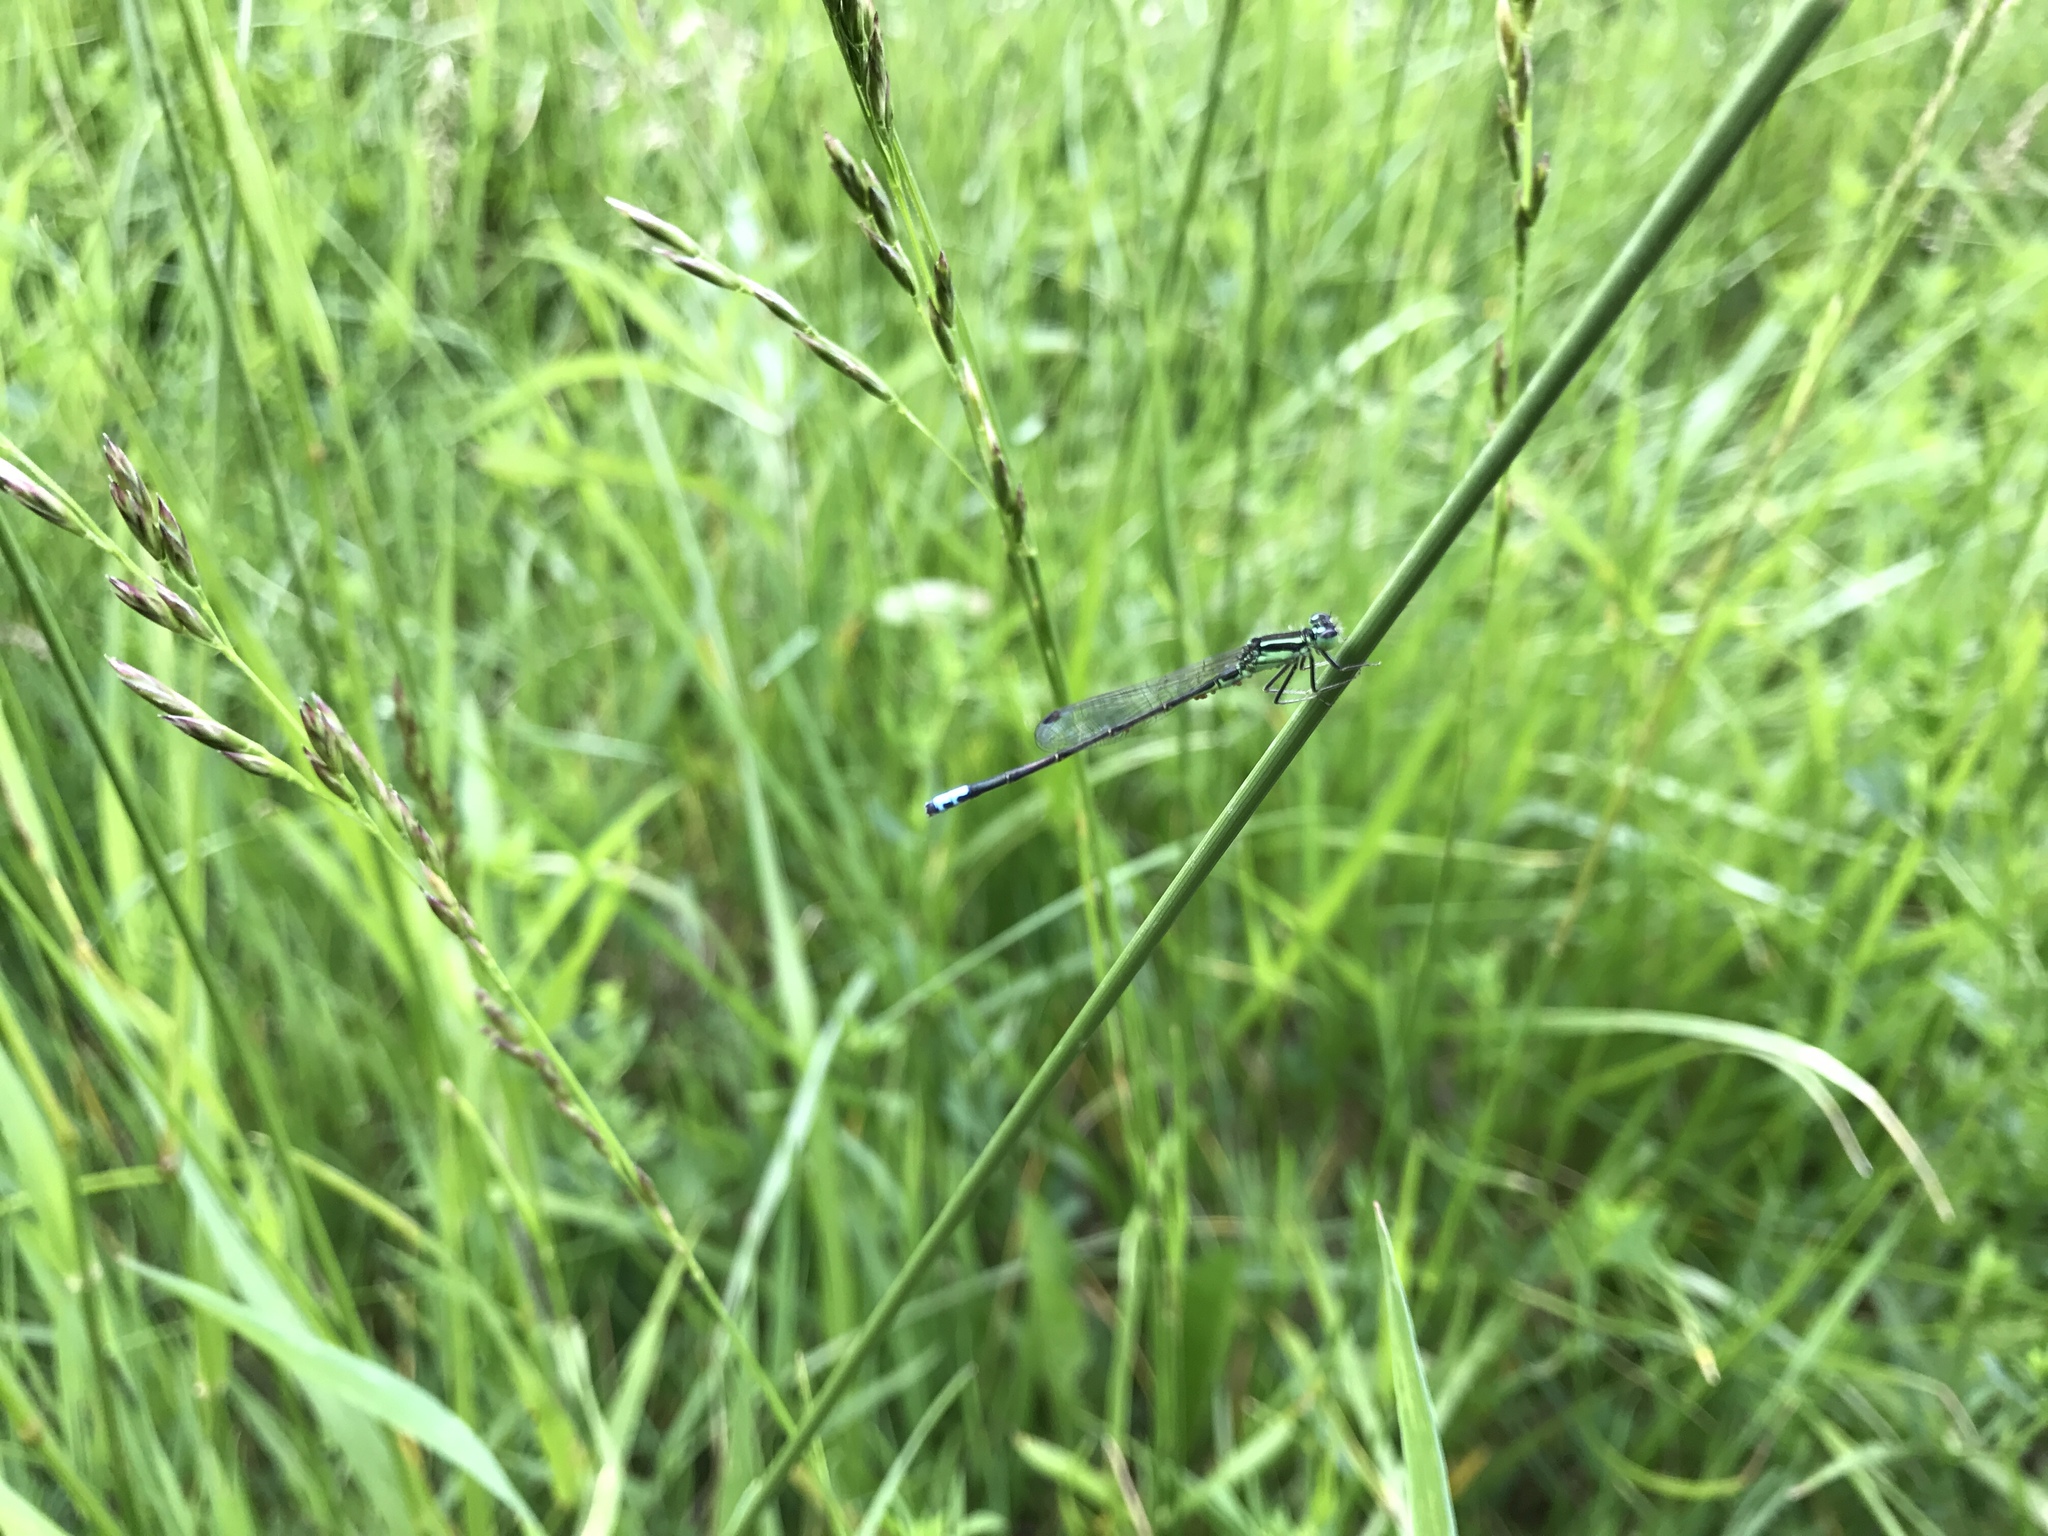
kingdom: Animalia
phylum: Arthropoda
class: Insecta
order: Odonata
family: Coenagrionidae
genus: Ischnura
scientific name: Ischnura verticalis
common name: Eastern forktail
